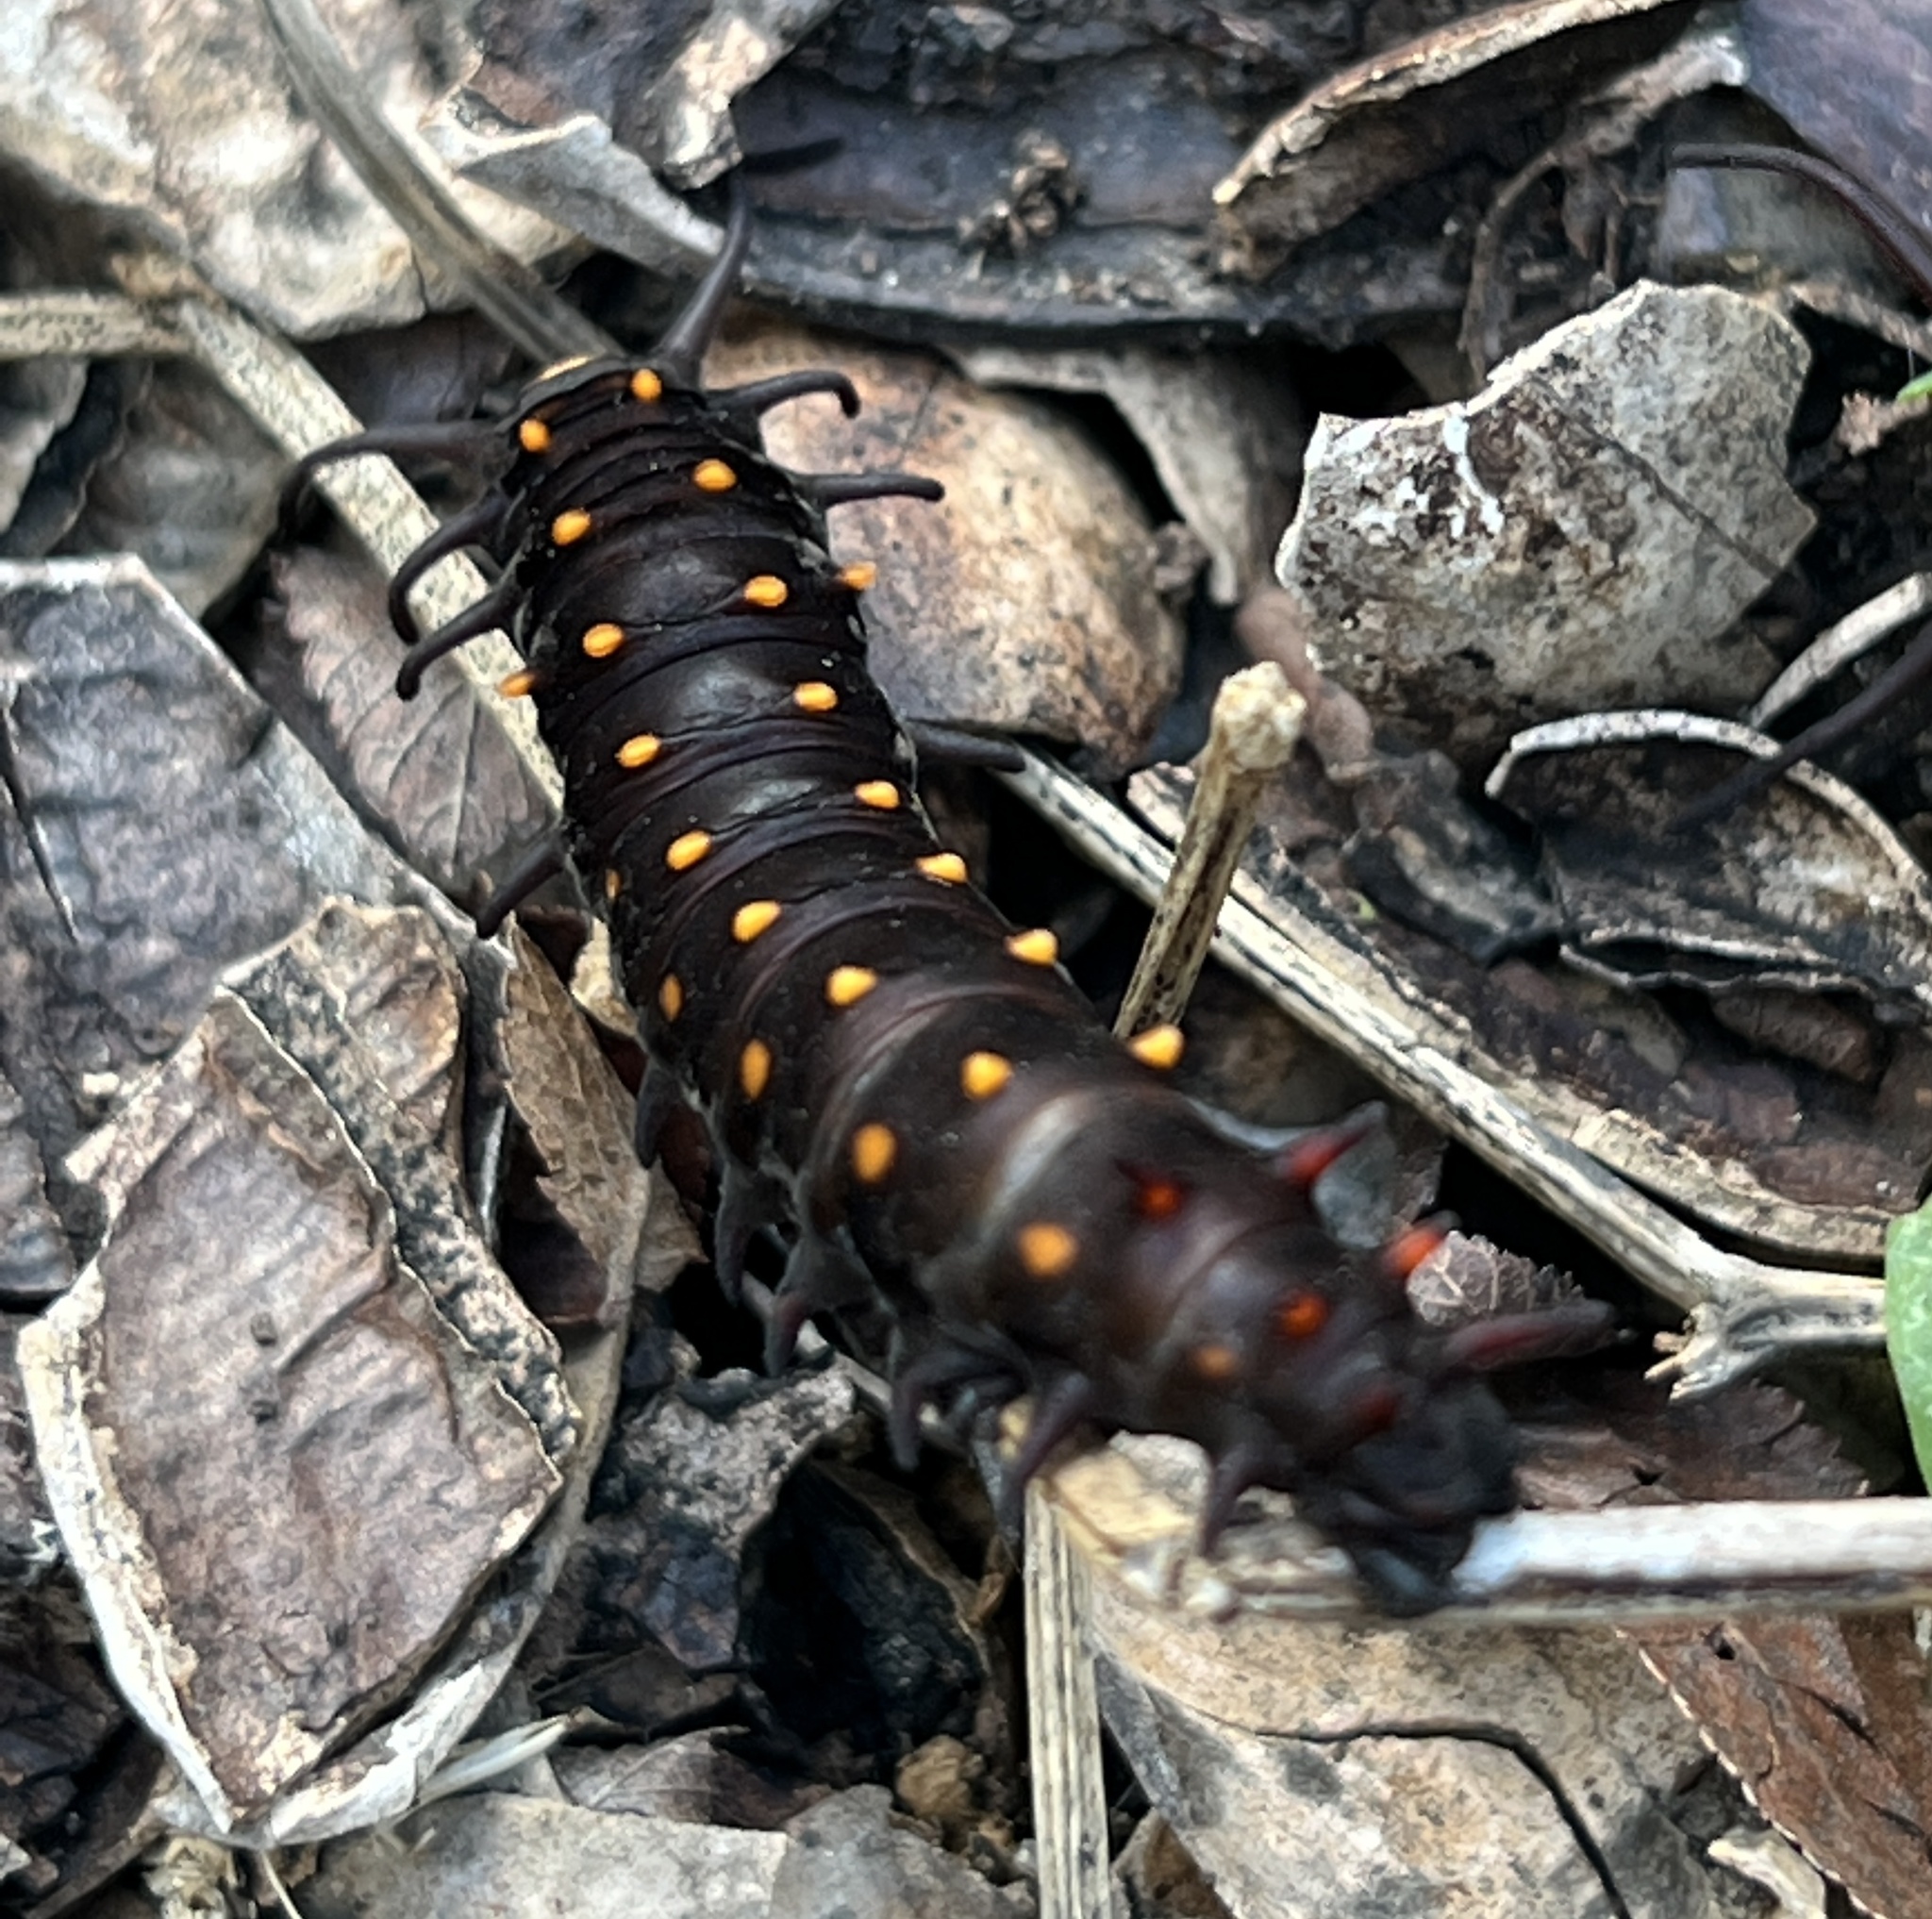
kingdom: Animalia
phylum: Arthropoda
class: Insecta
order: Lepidoptera
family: Papilionidae
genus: Battus
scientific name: Battus philenor
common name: Pipevine swallowtail
